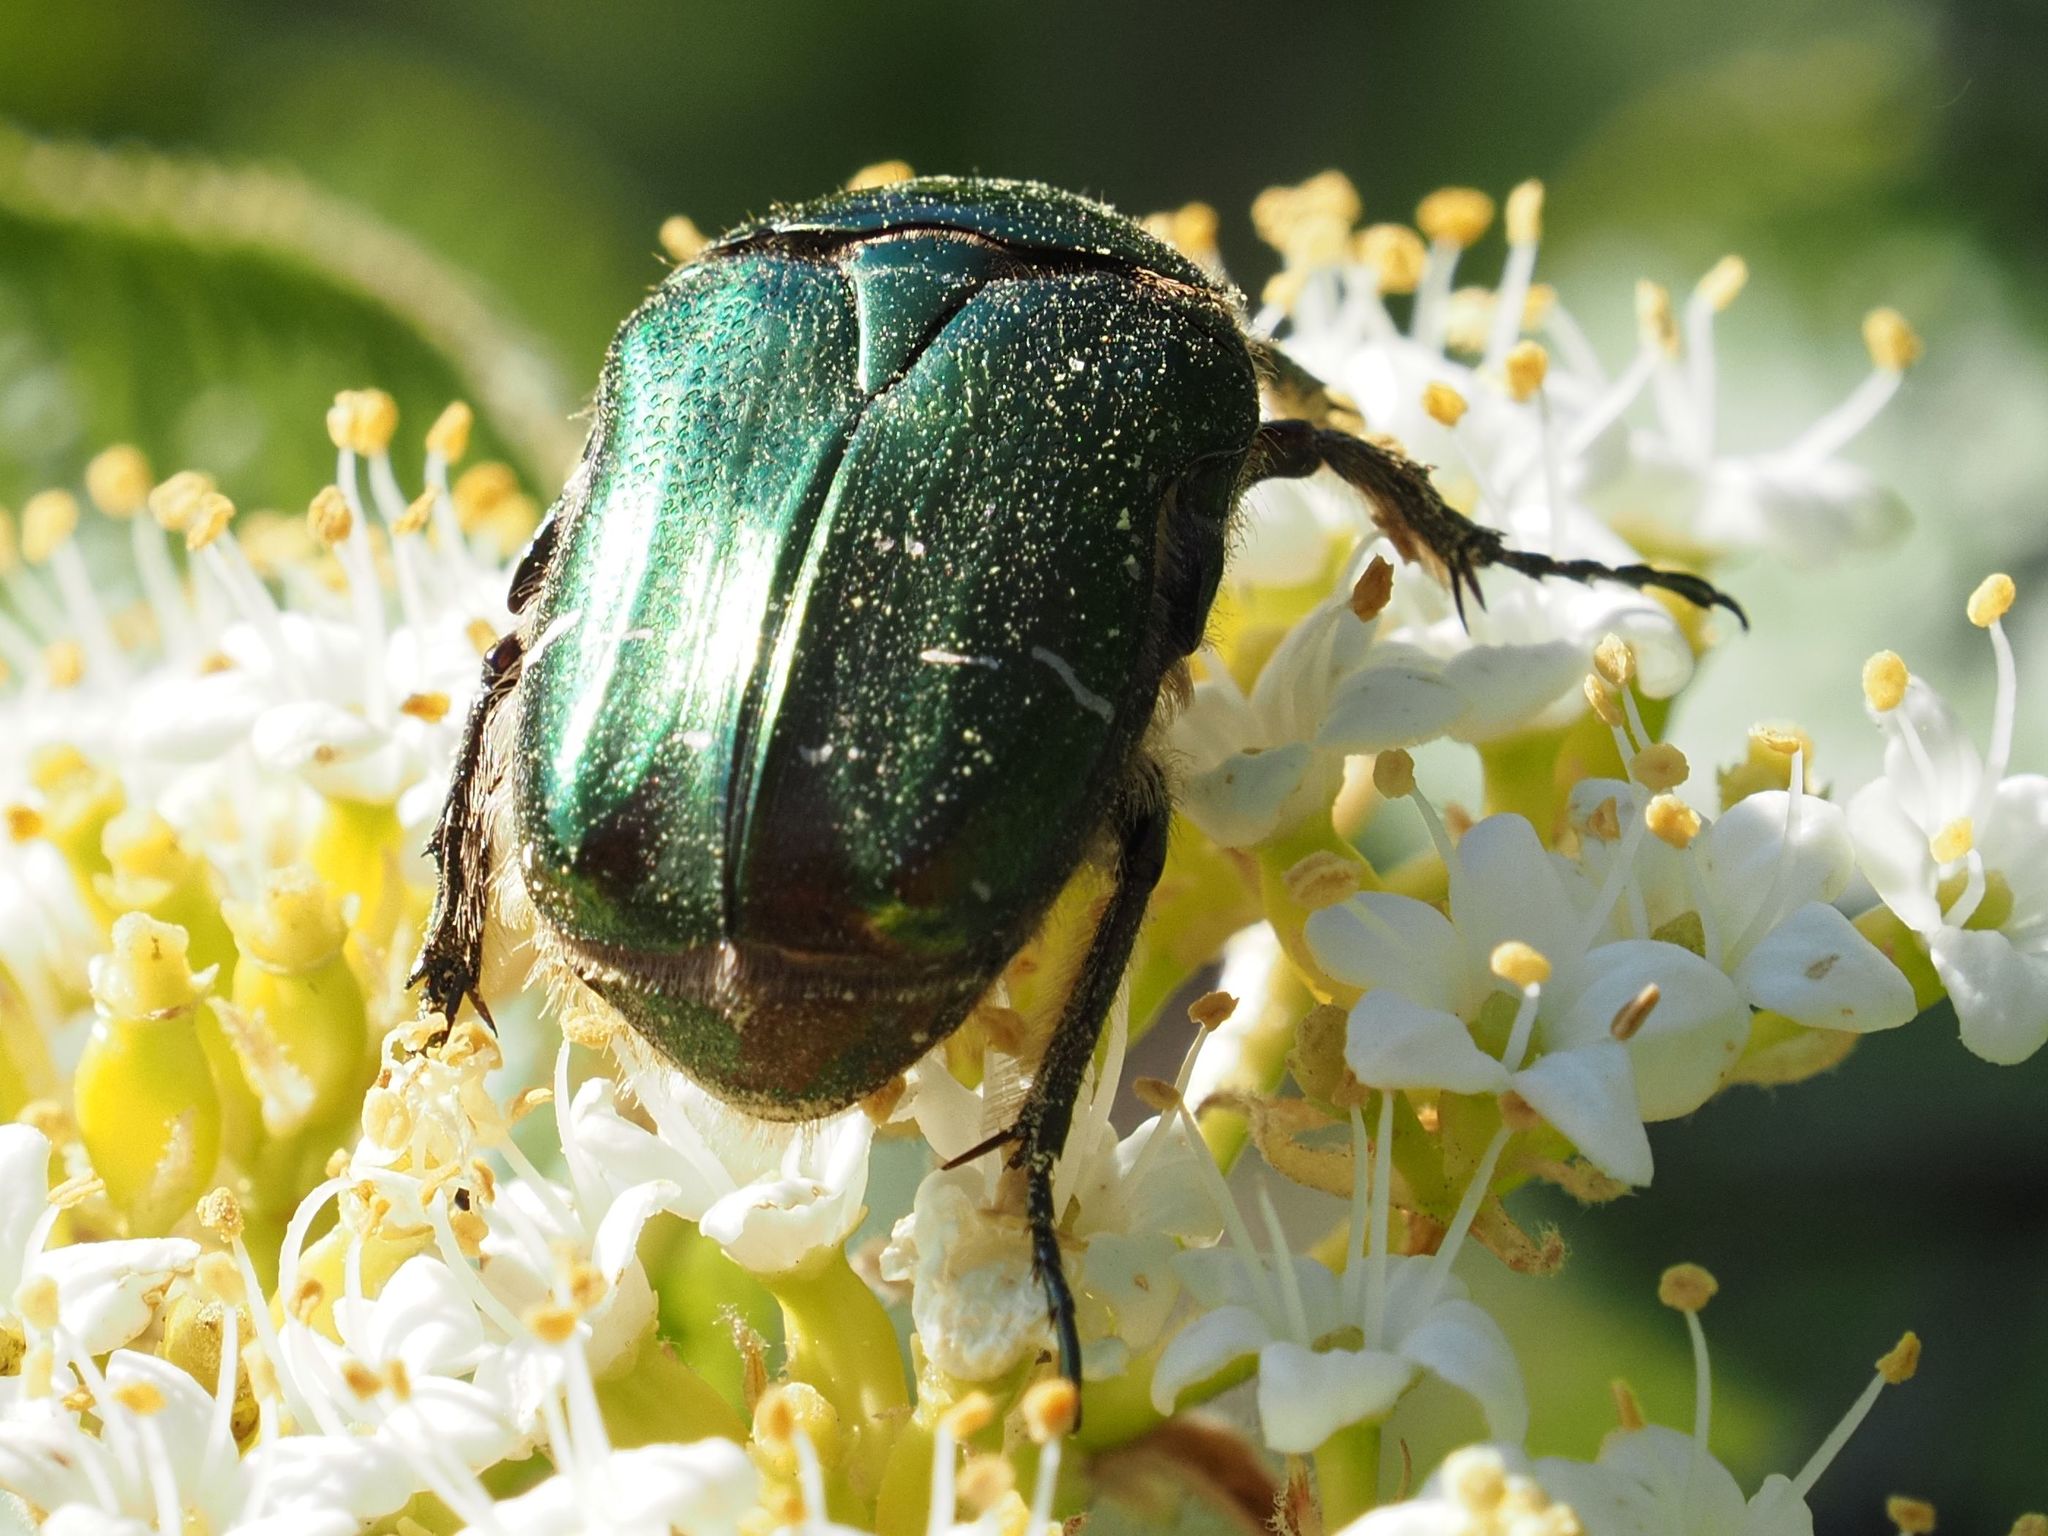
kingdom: Animalia
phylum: Arthropoda
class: Insecta
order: Coleoptera
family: Scarabaeidae
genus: Cetonia
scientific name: Cetonia aurata
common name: Rose chafer
